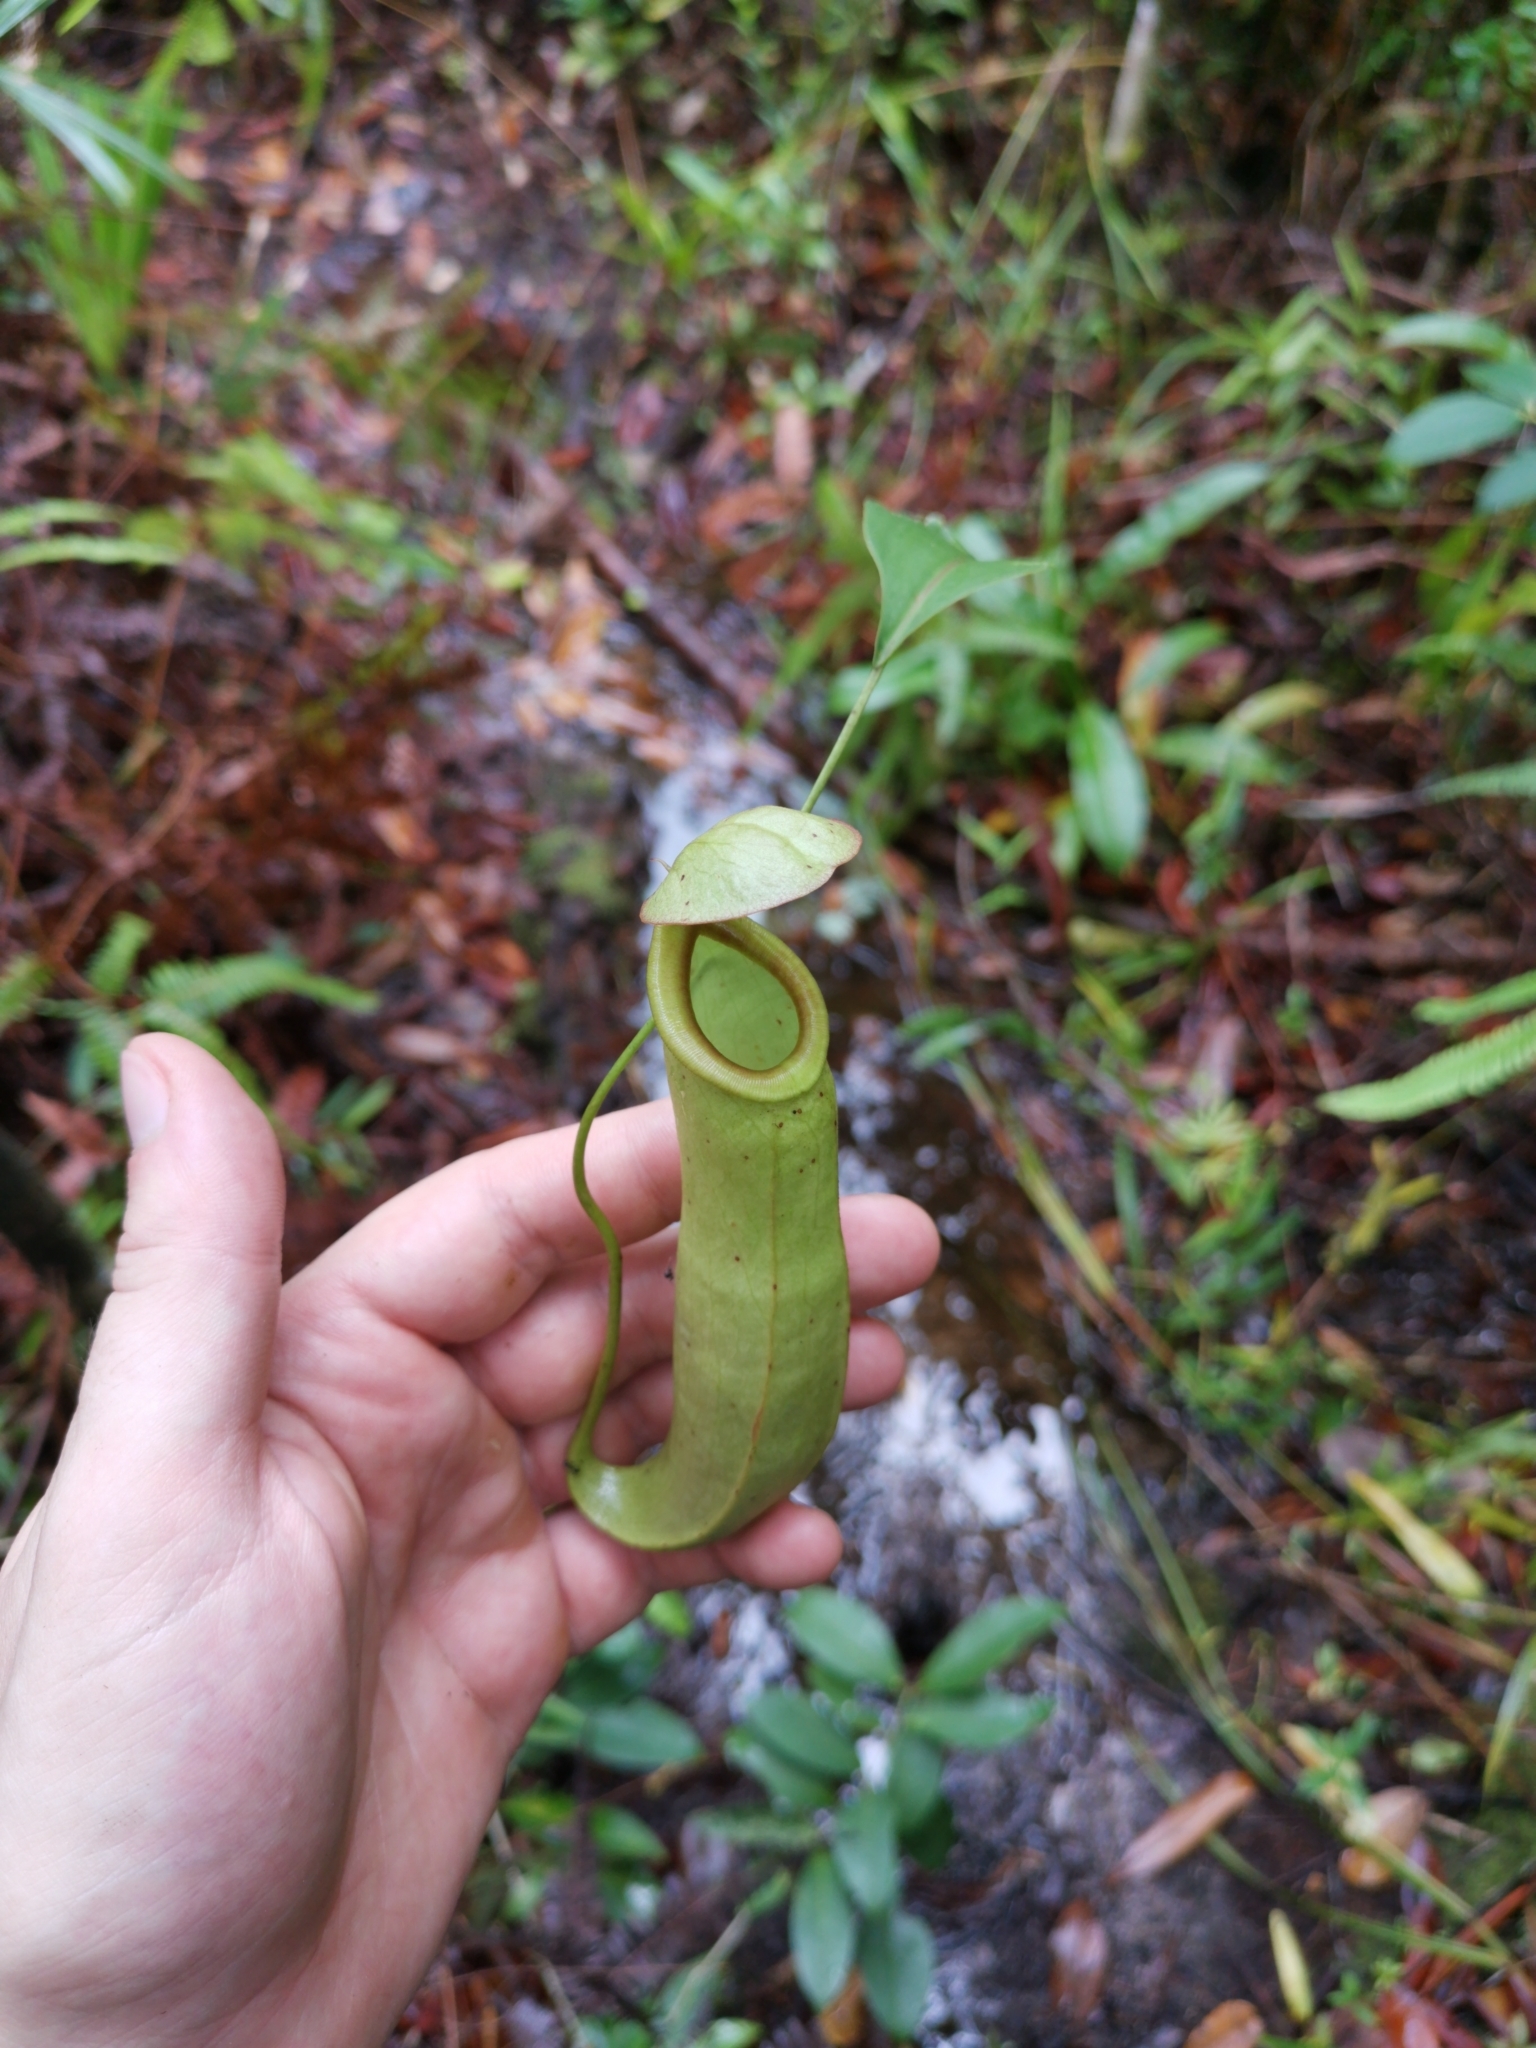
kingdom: Plantae
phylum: Tracheophyta
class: Magnoliopsida
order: Caryophyllales
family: Nepenthaceae
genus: Nepenthes
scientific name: Nepenthes mirabilis
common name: Tropical pitcherplant
